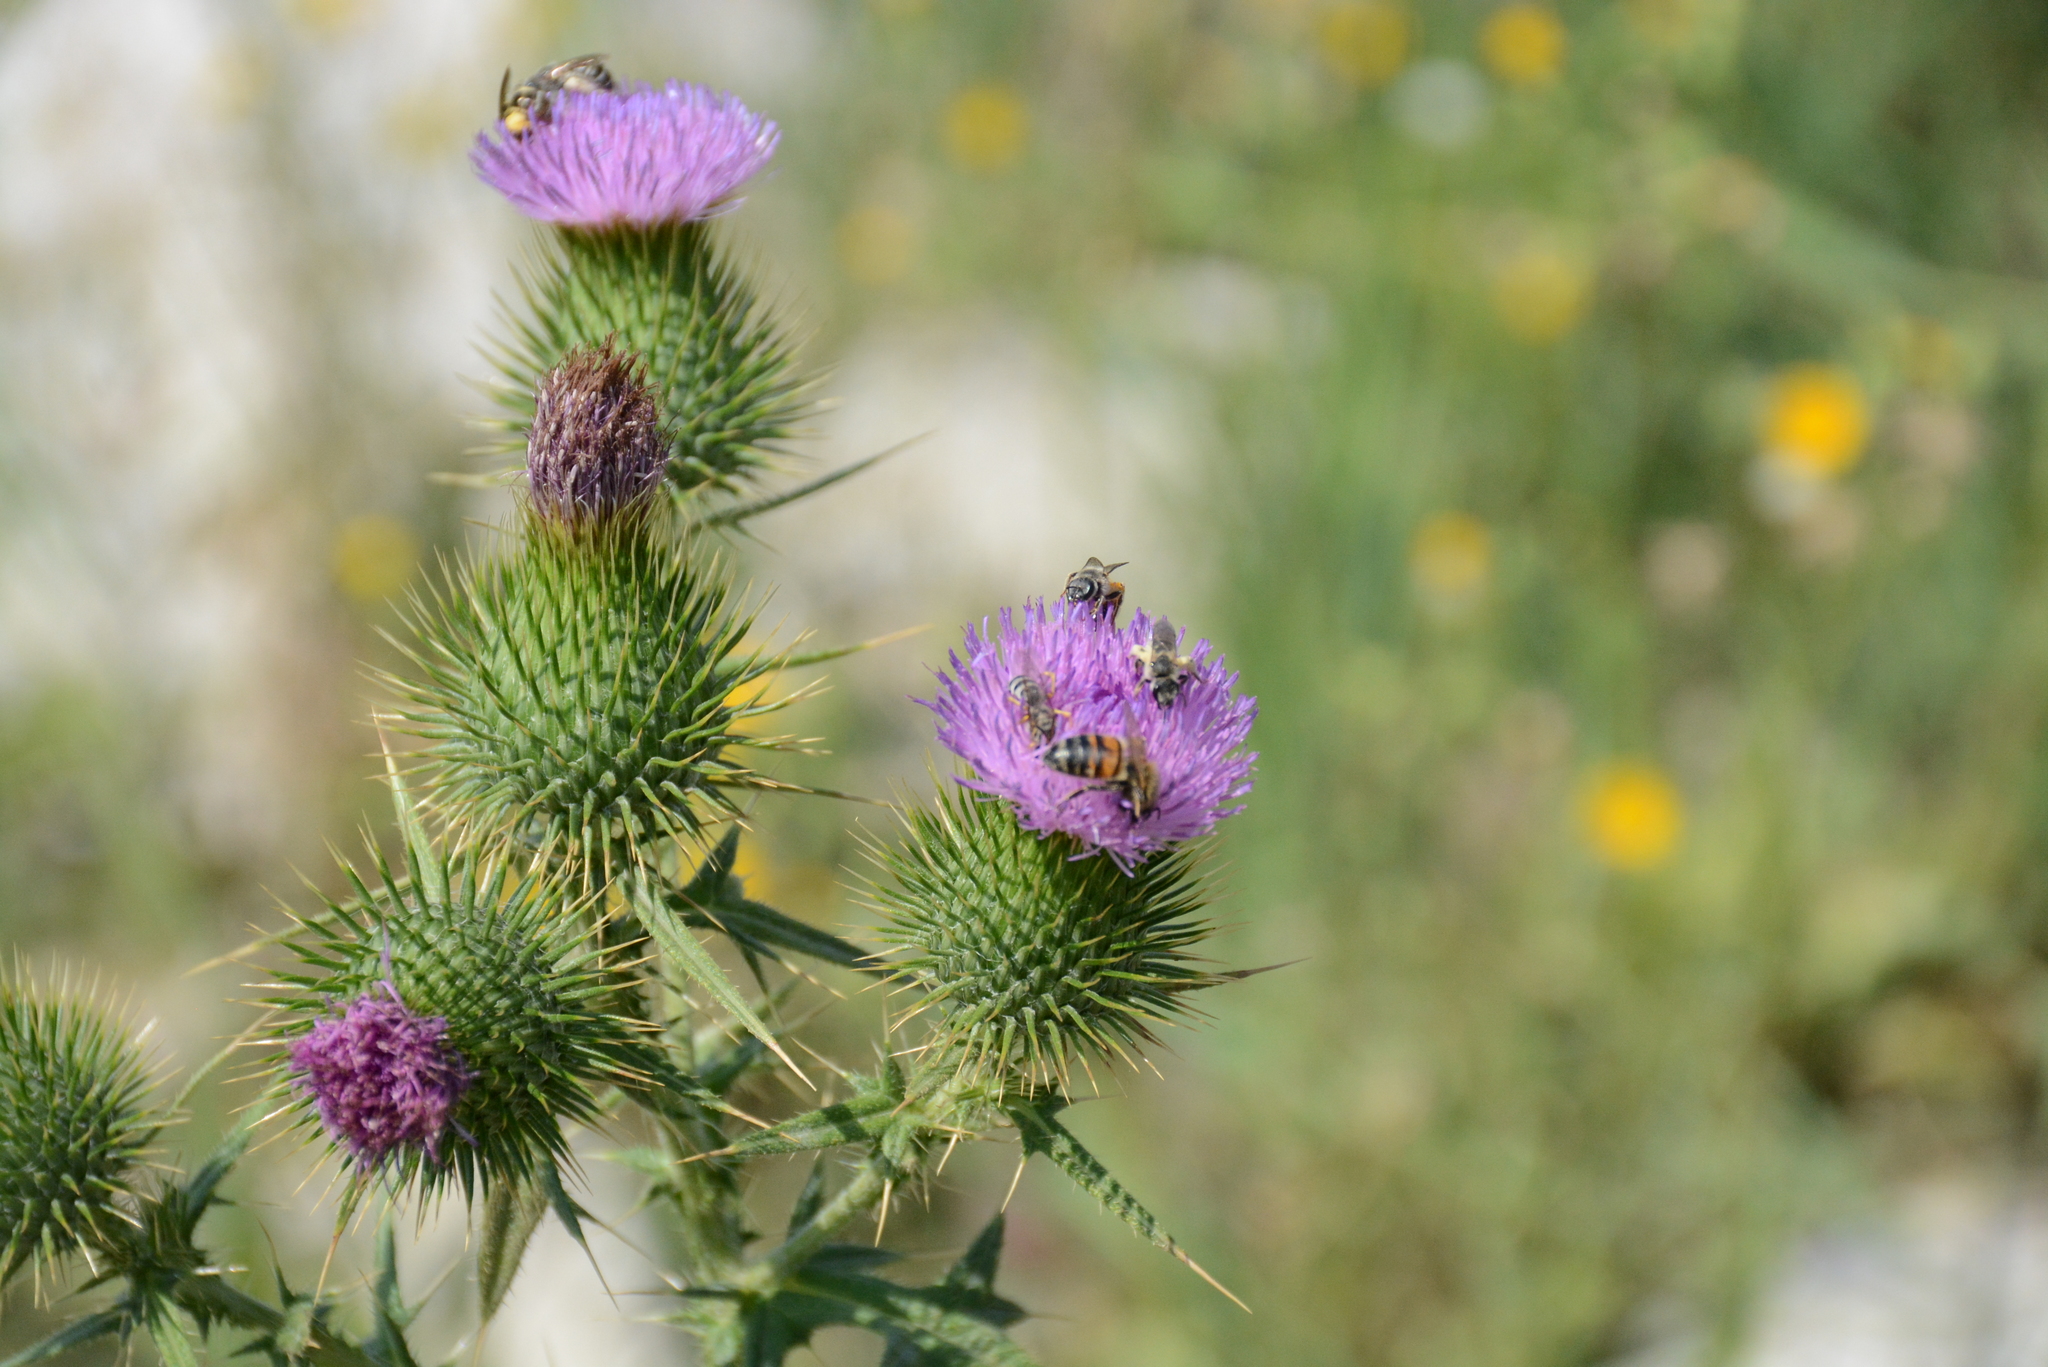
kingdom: Animalia
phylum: Arthropoda
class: Insecta
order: Hymenoptera
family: Apidae
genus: Apis
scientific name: Apis mellifera
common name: Honey bee
